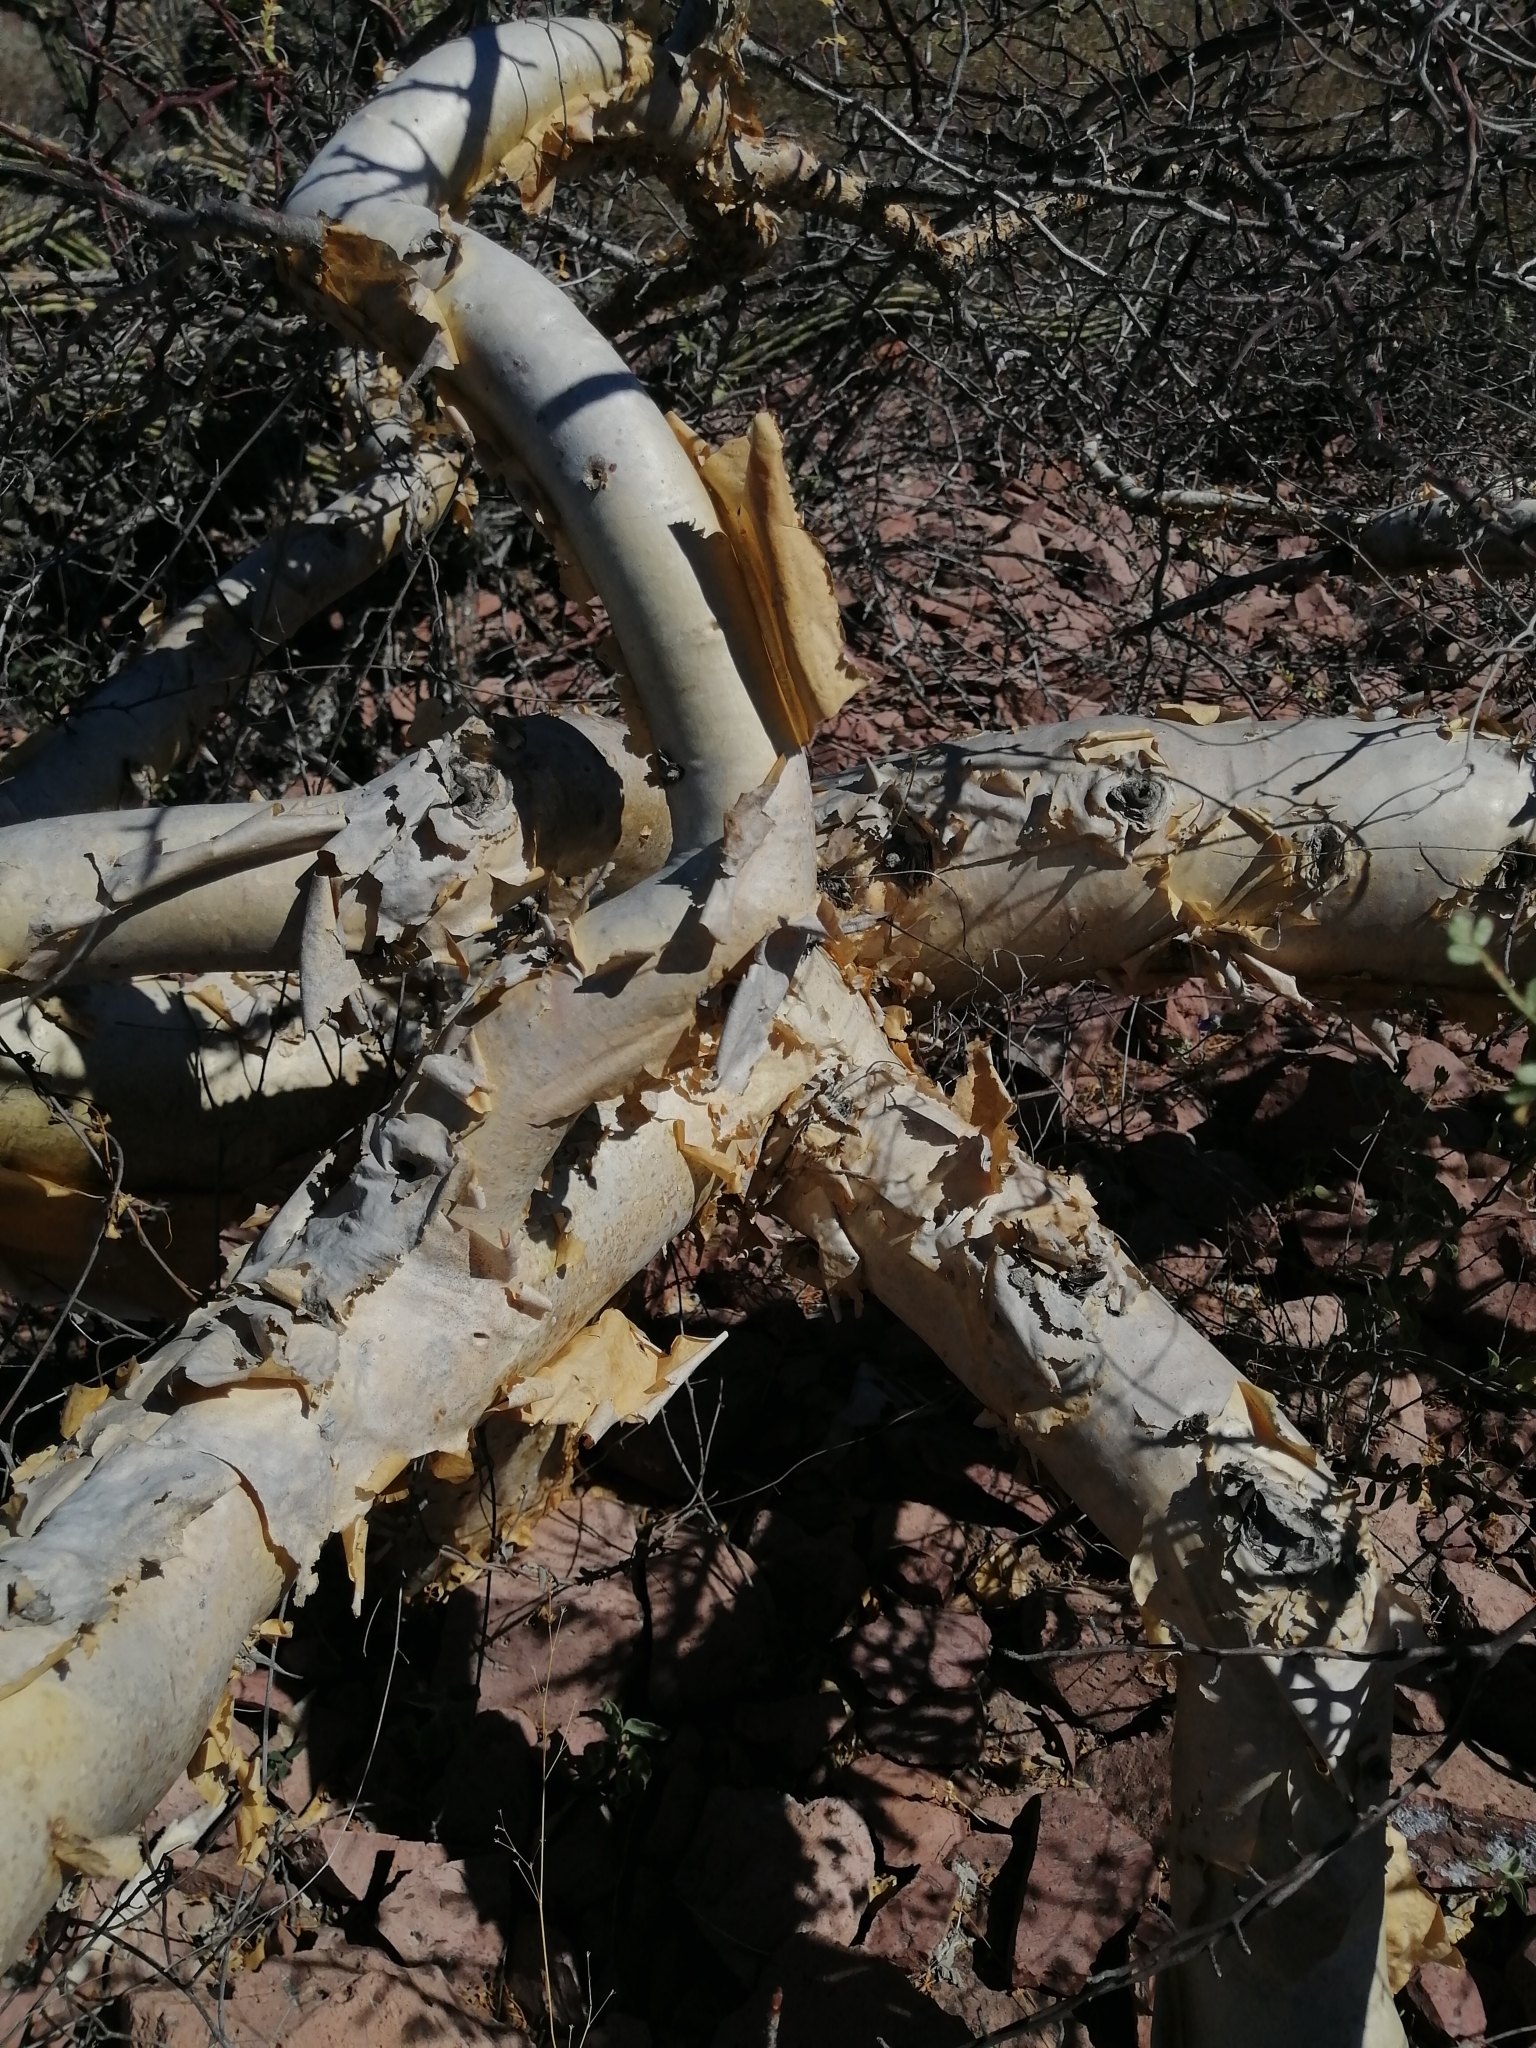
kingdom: Plantae
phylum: Tracheophyta
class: Magnoliopsida
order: Sapindales
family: Burseraceae
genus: Bursera
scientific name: Bursera microphylla
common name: Elephant tree
